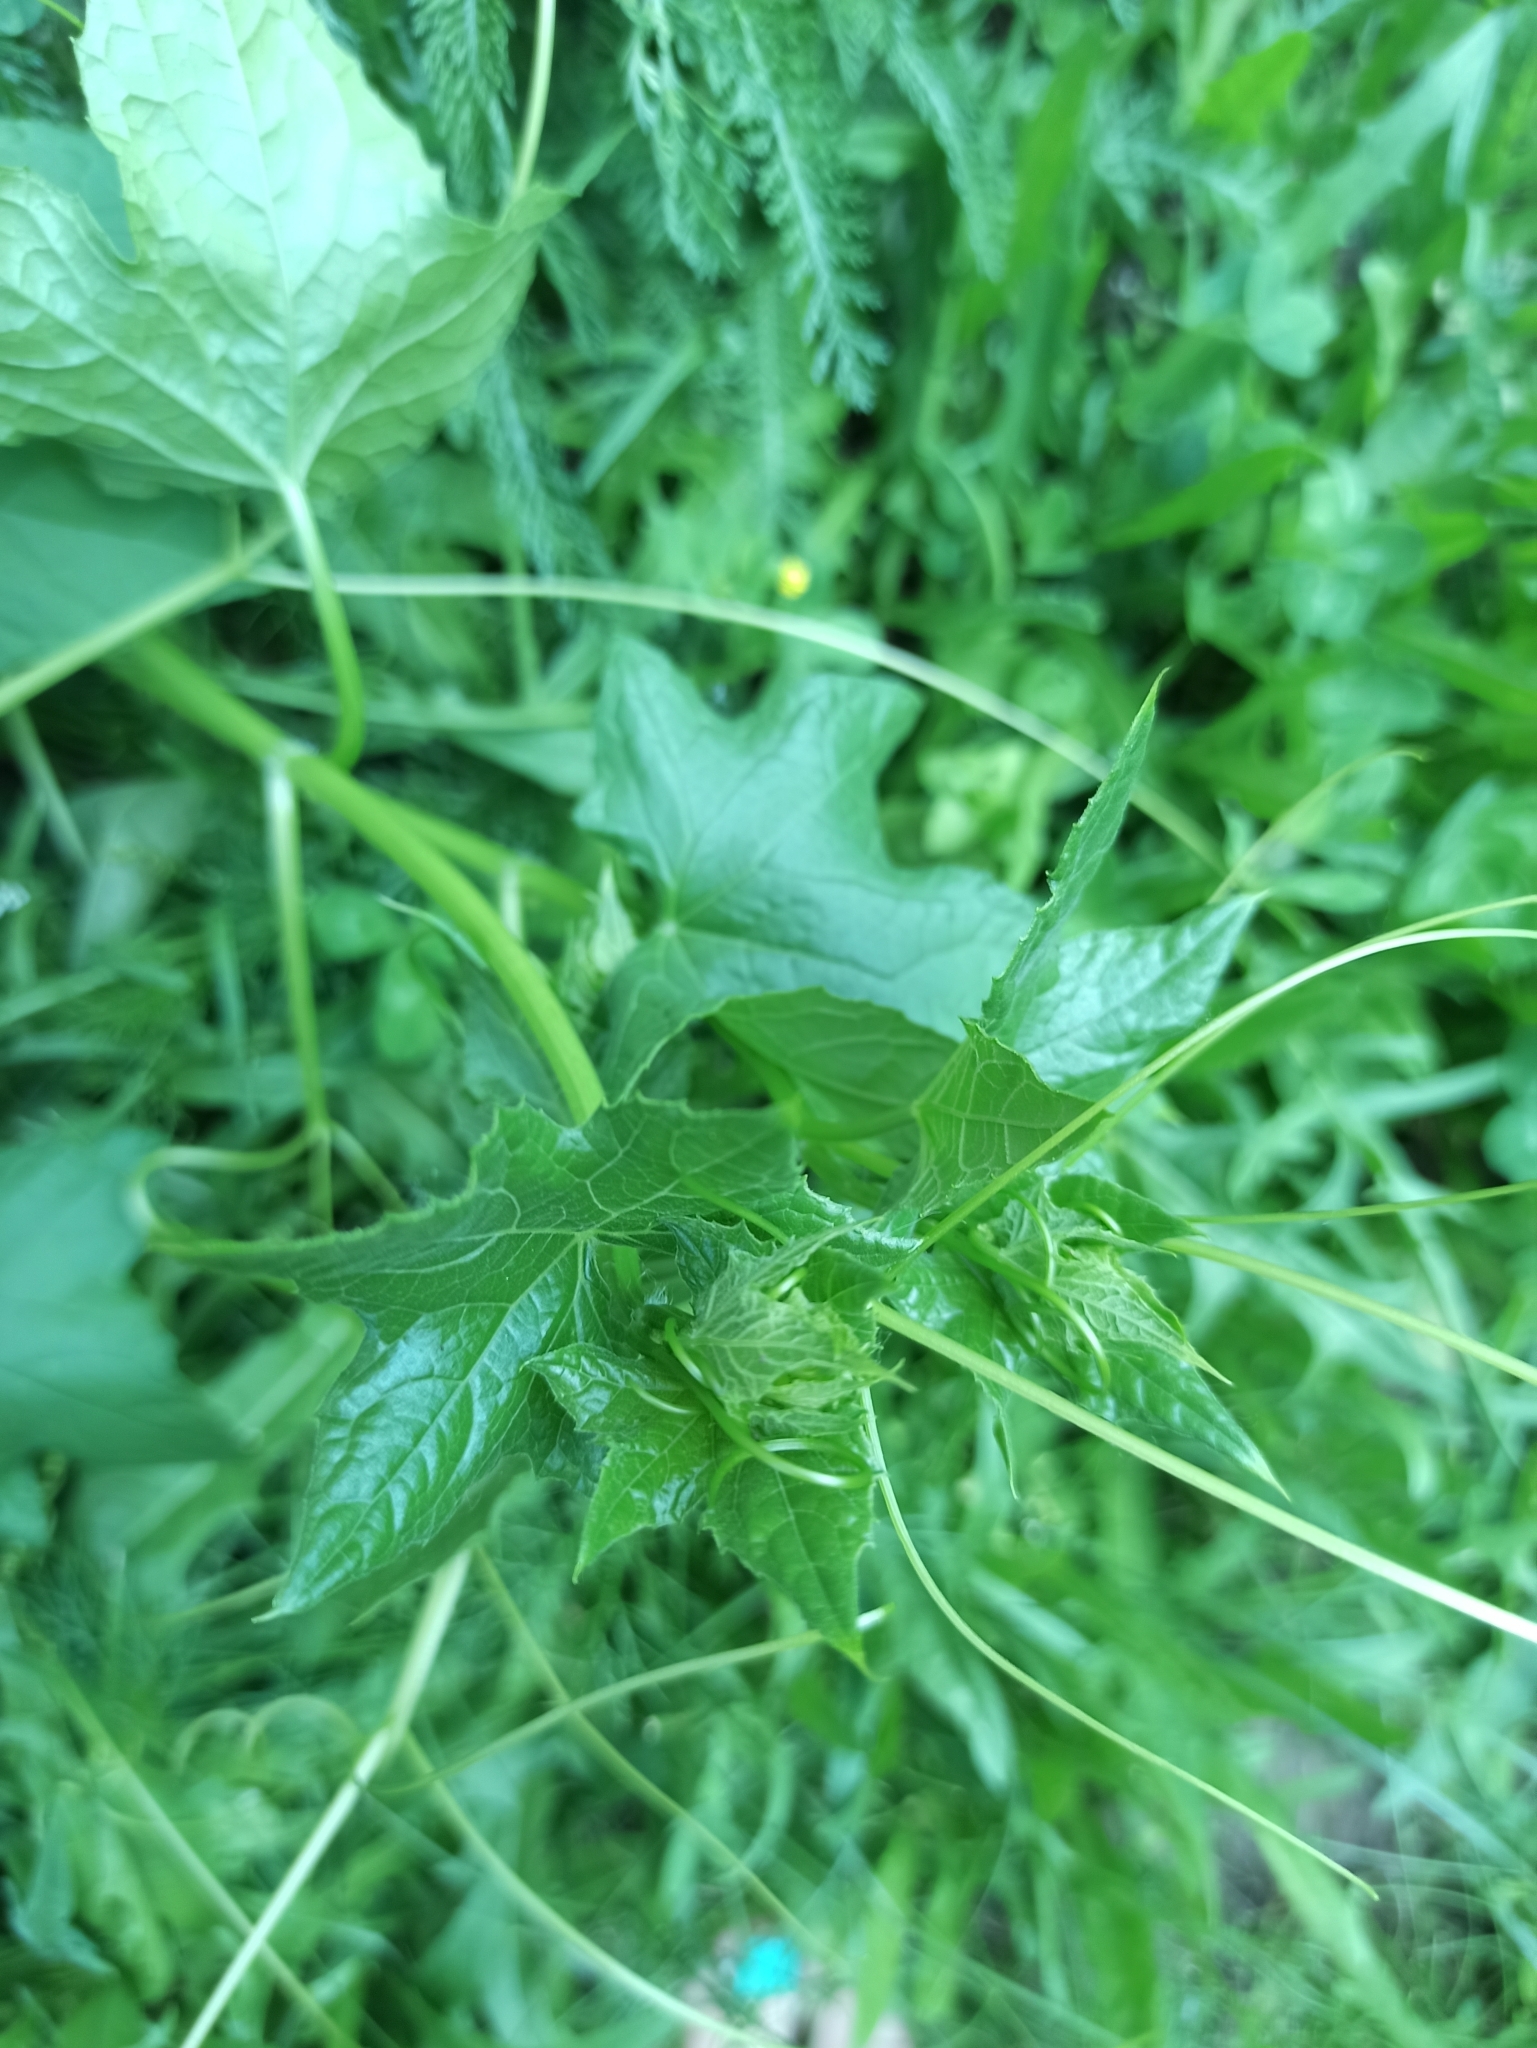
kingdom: Plantae
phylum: Tracheophyta
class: Magnoliopsida
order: Cucurbitales
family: Cucurbitaceae
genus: Bryonia
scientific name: Bryonia alba
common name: White bryony
